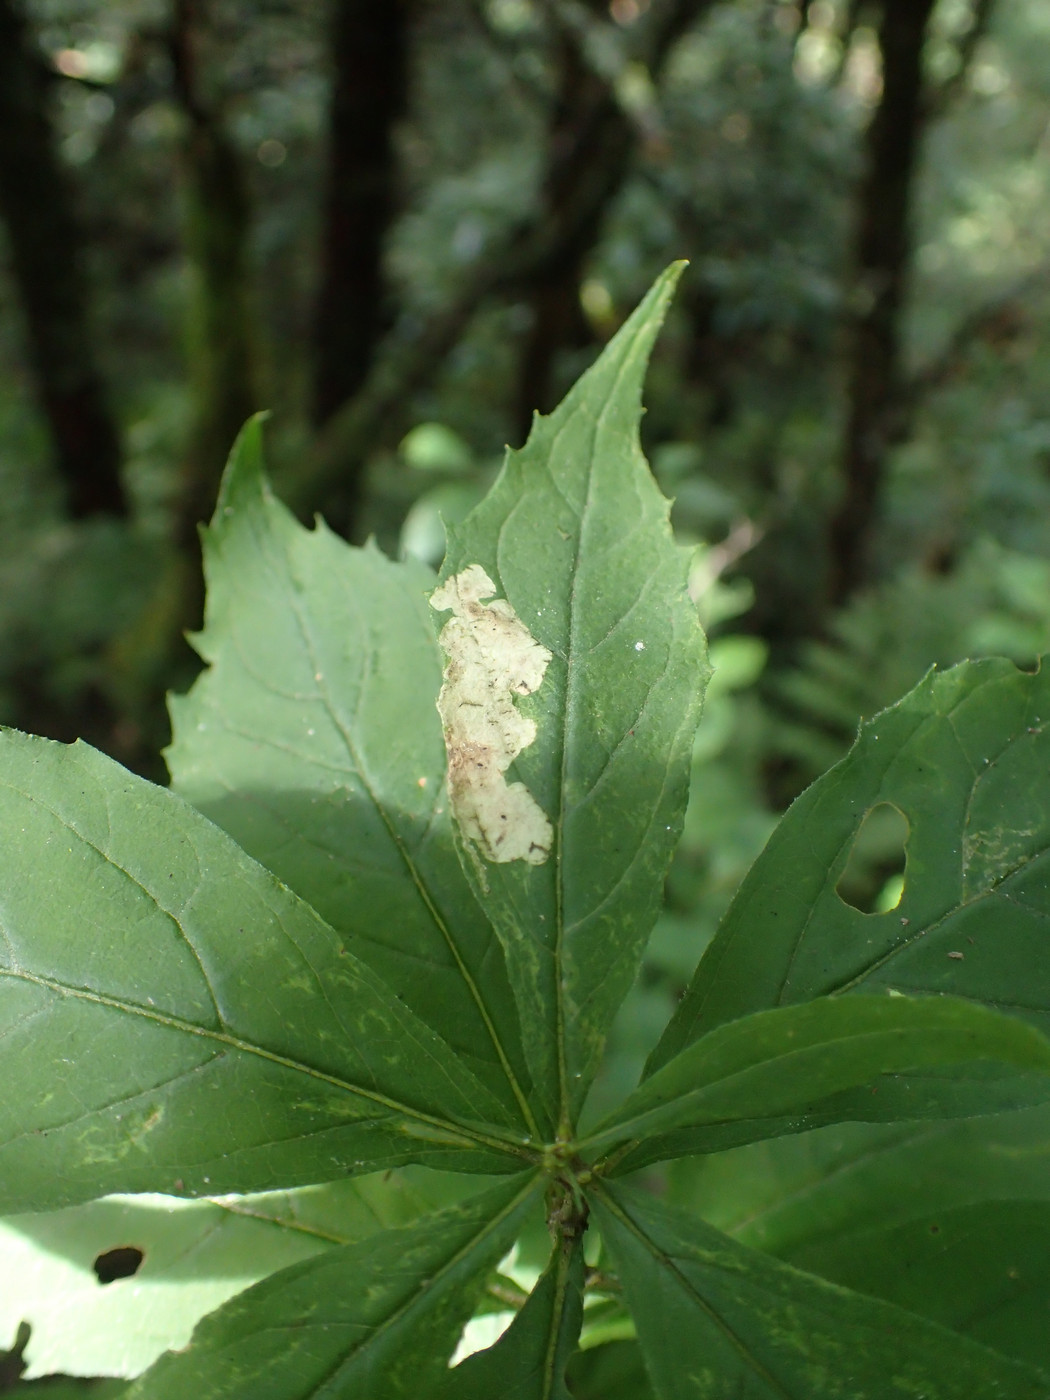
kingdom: Animalia
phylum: Arthropoda
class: Insecta
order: Diptera
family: Agromyzidae
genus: Liriomyza
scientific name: Liriomyza limopsis
